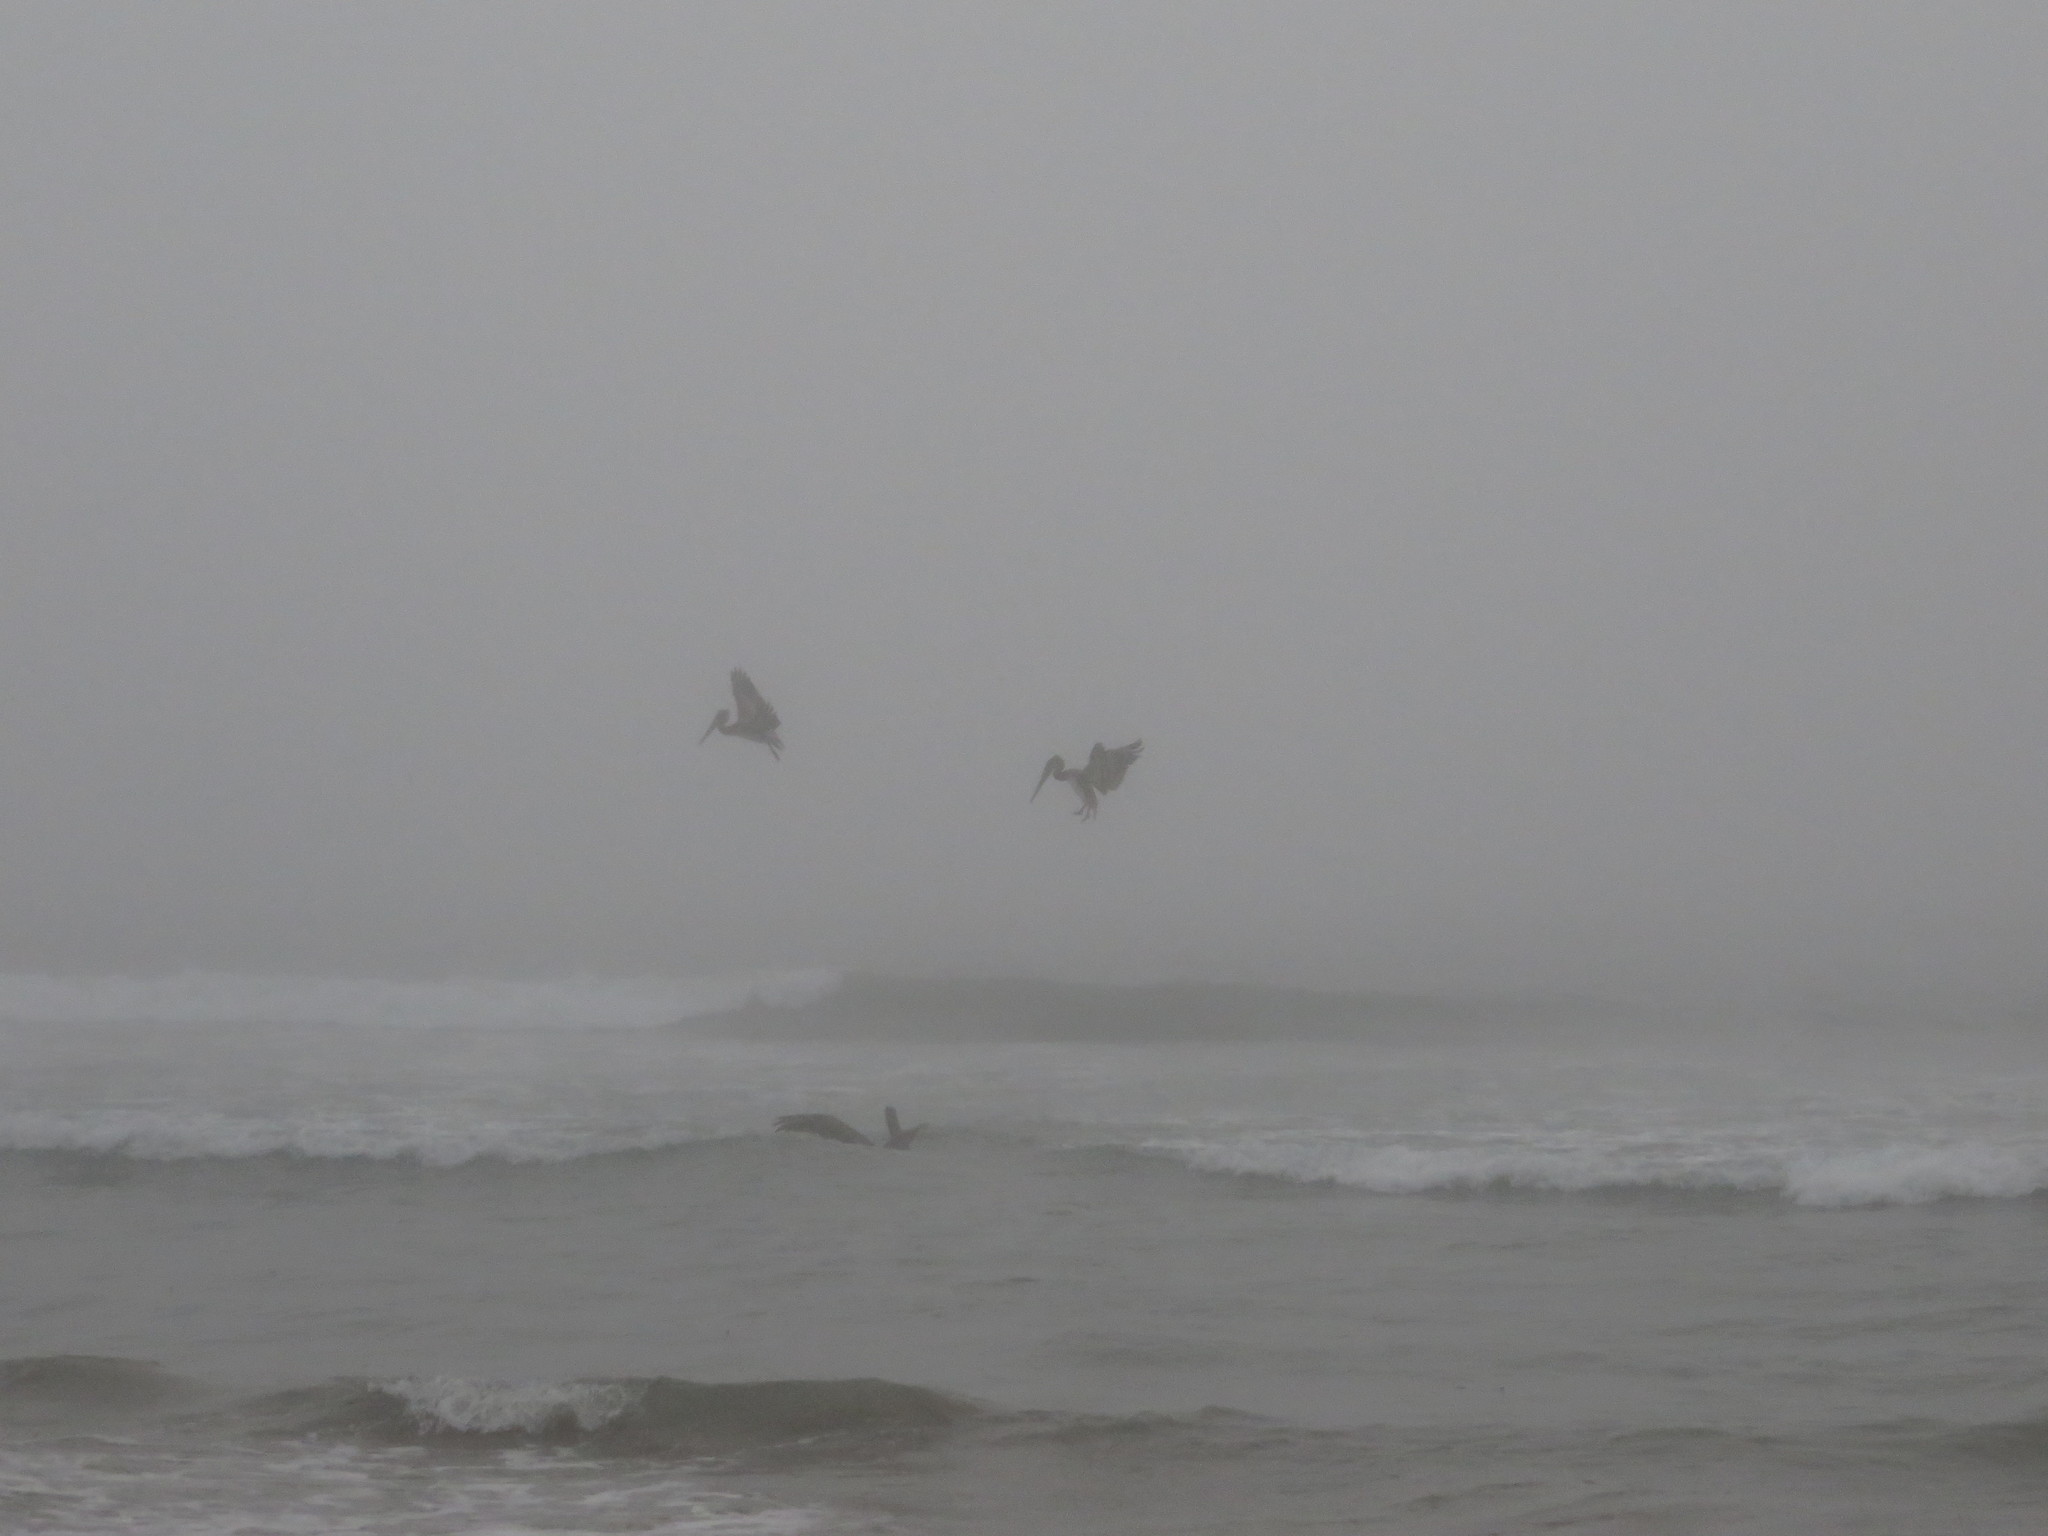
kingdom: Animalia
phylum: Chordata
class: Aves
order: Pelecaniformes
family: Pelecanidae
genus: Pelecanus
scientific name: Pelecanus occidentalis
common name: Brown pelican
